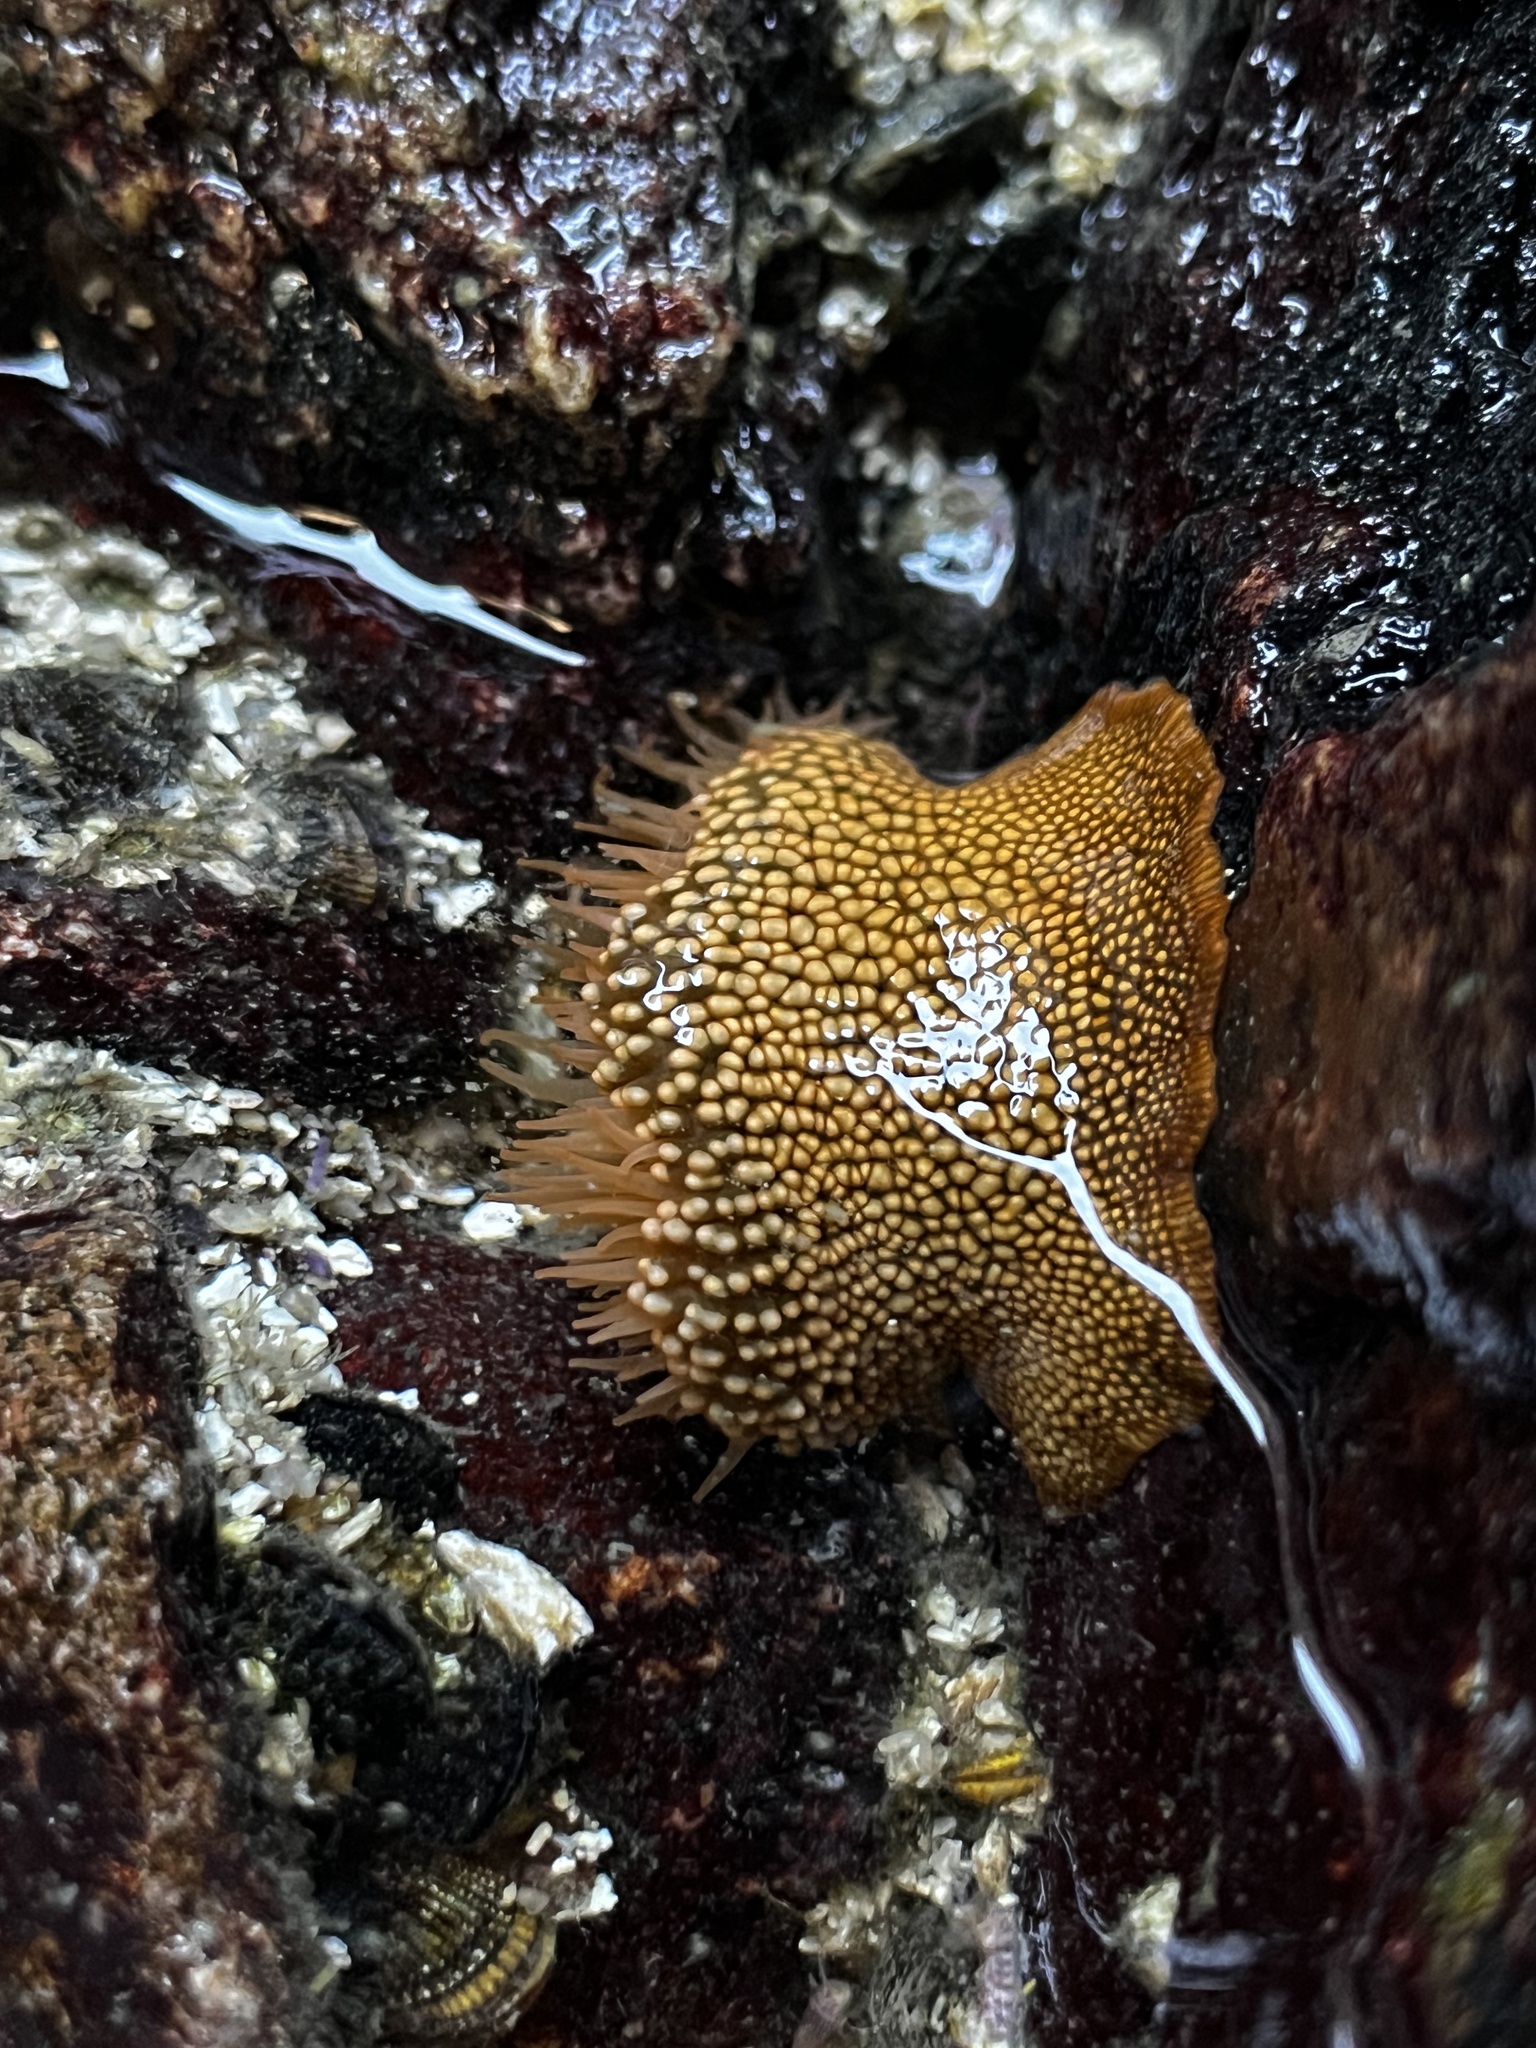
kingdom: Animalia
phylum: Cnidaria
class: Anthozoa
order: Actiniaria
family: Actiniidae
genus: Phymanthea
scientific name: Phymanthea pluvia
